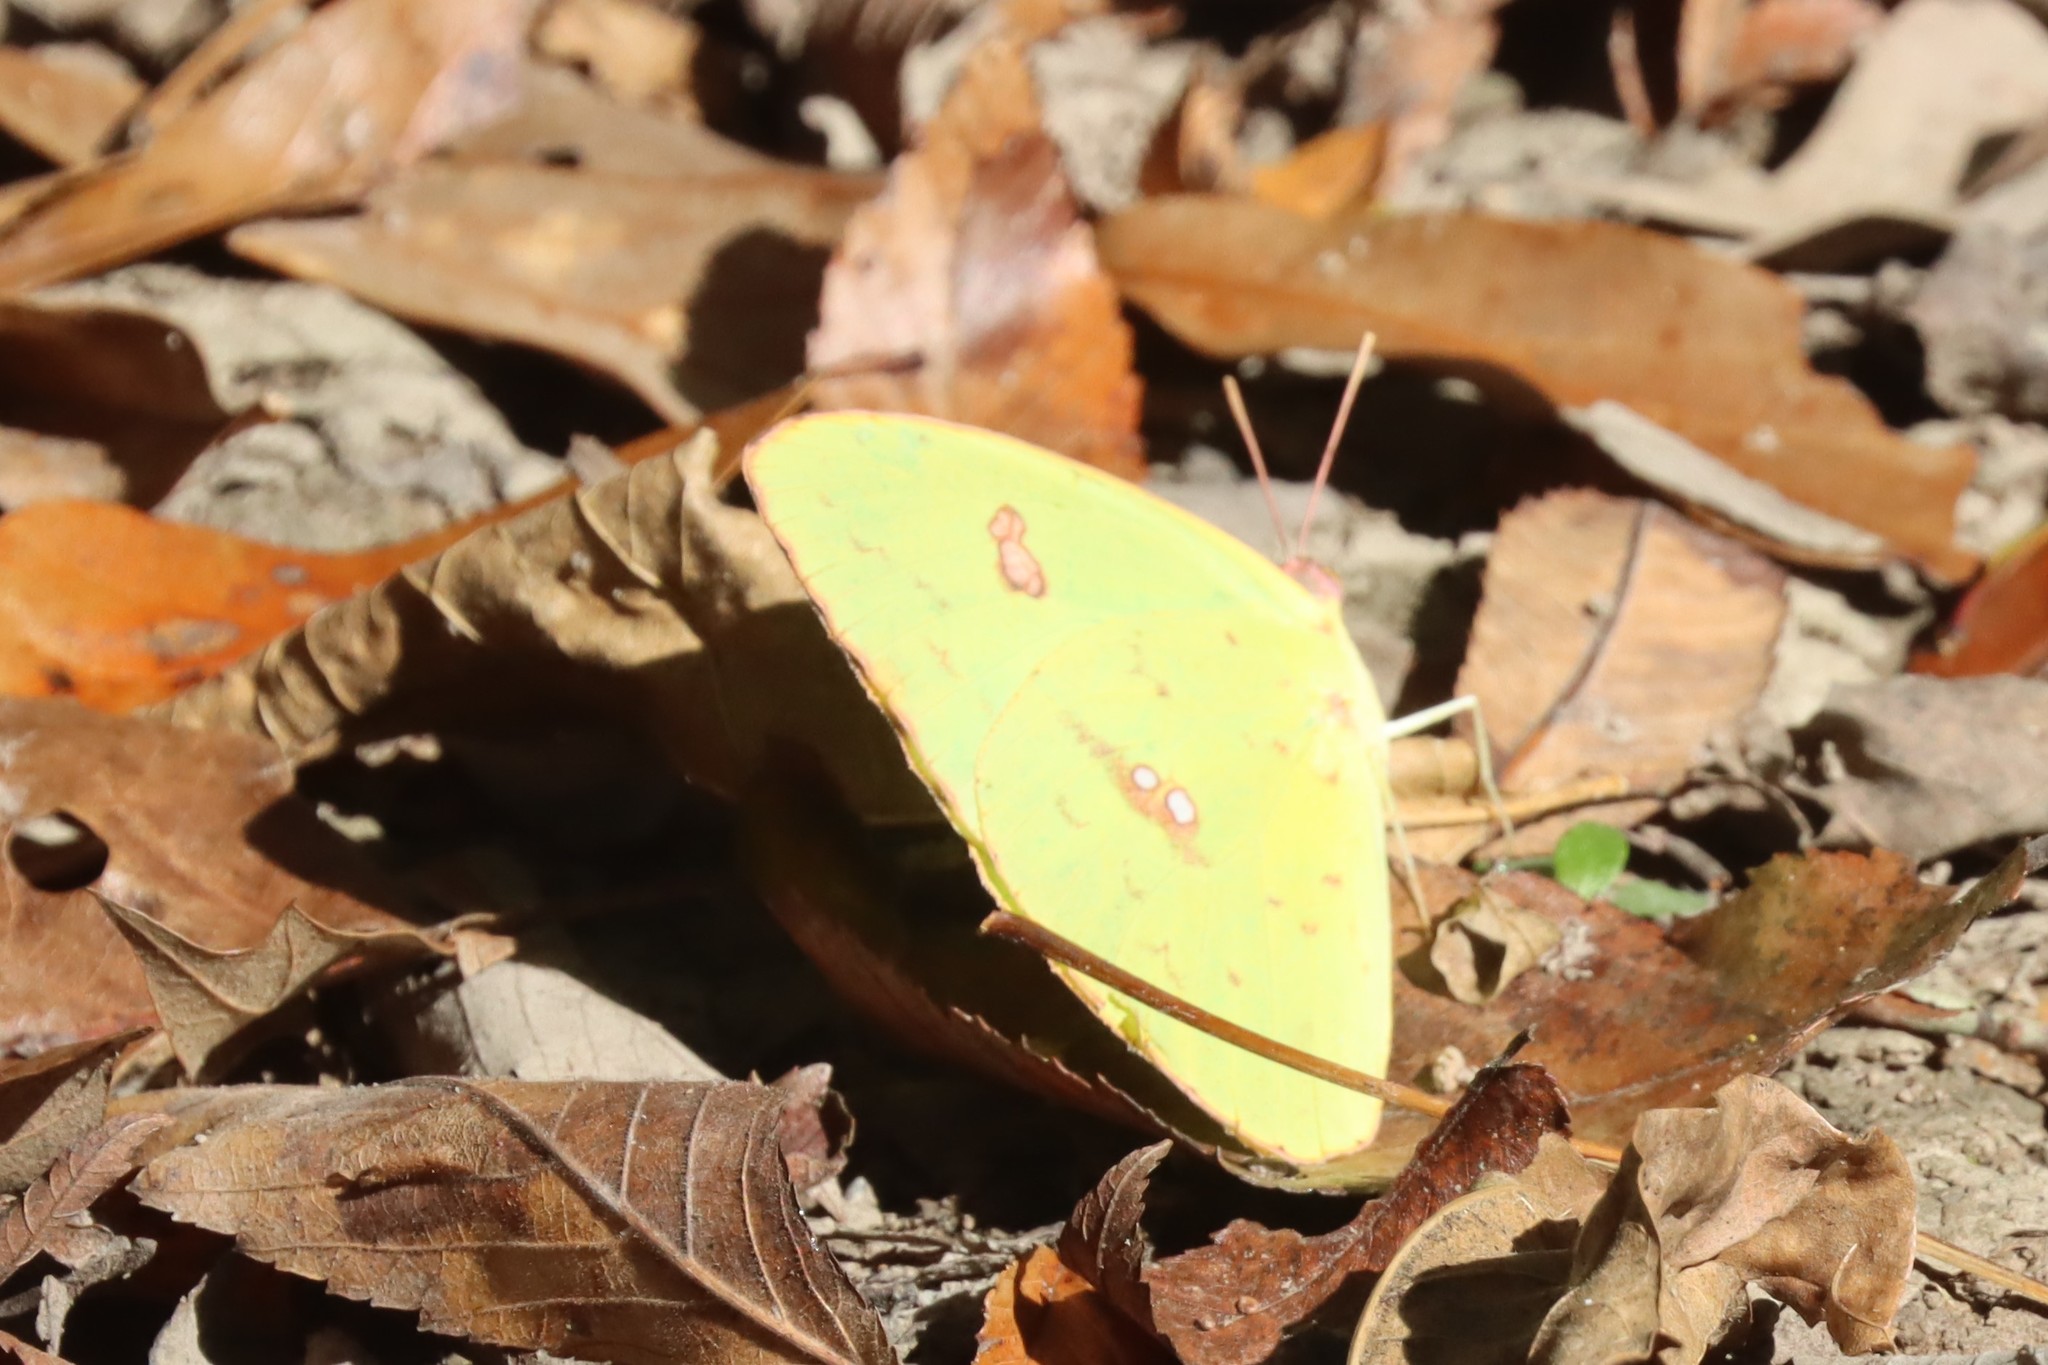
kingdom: Animalia
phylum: Arthropoda
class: Insecta
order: Lepidoptera
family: Pieridae
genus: Phoebis
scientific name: Phoebis sennae
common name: Cloudless sulphur
